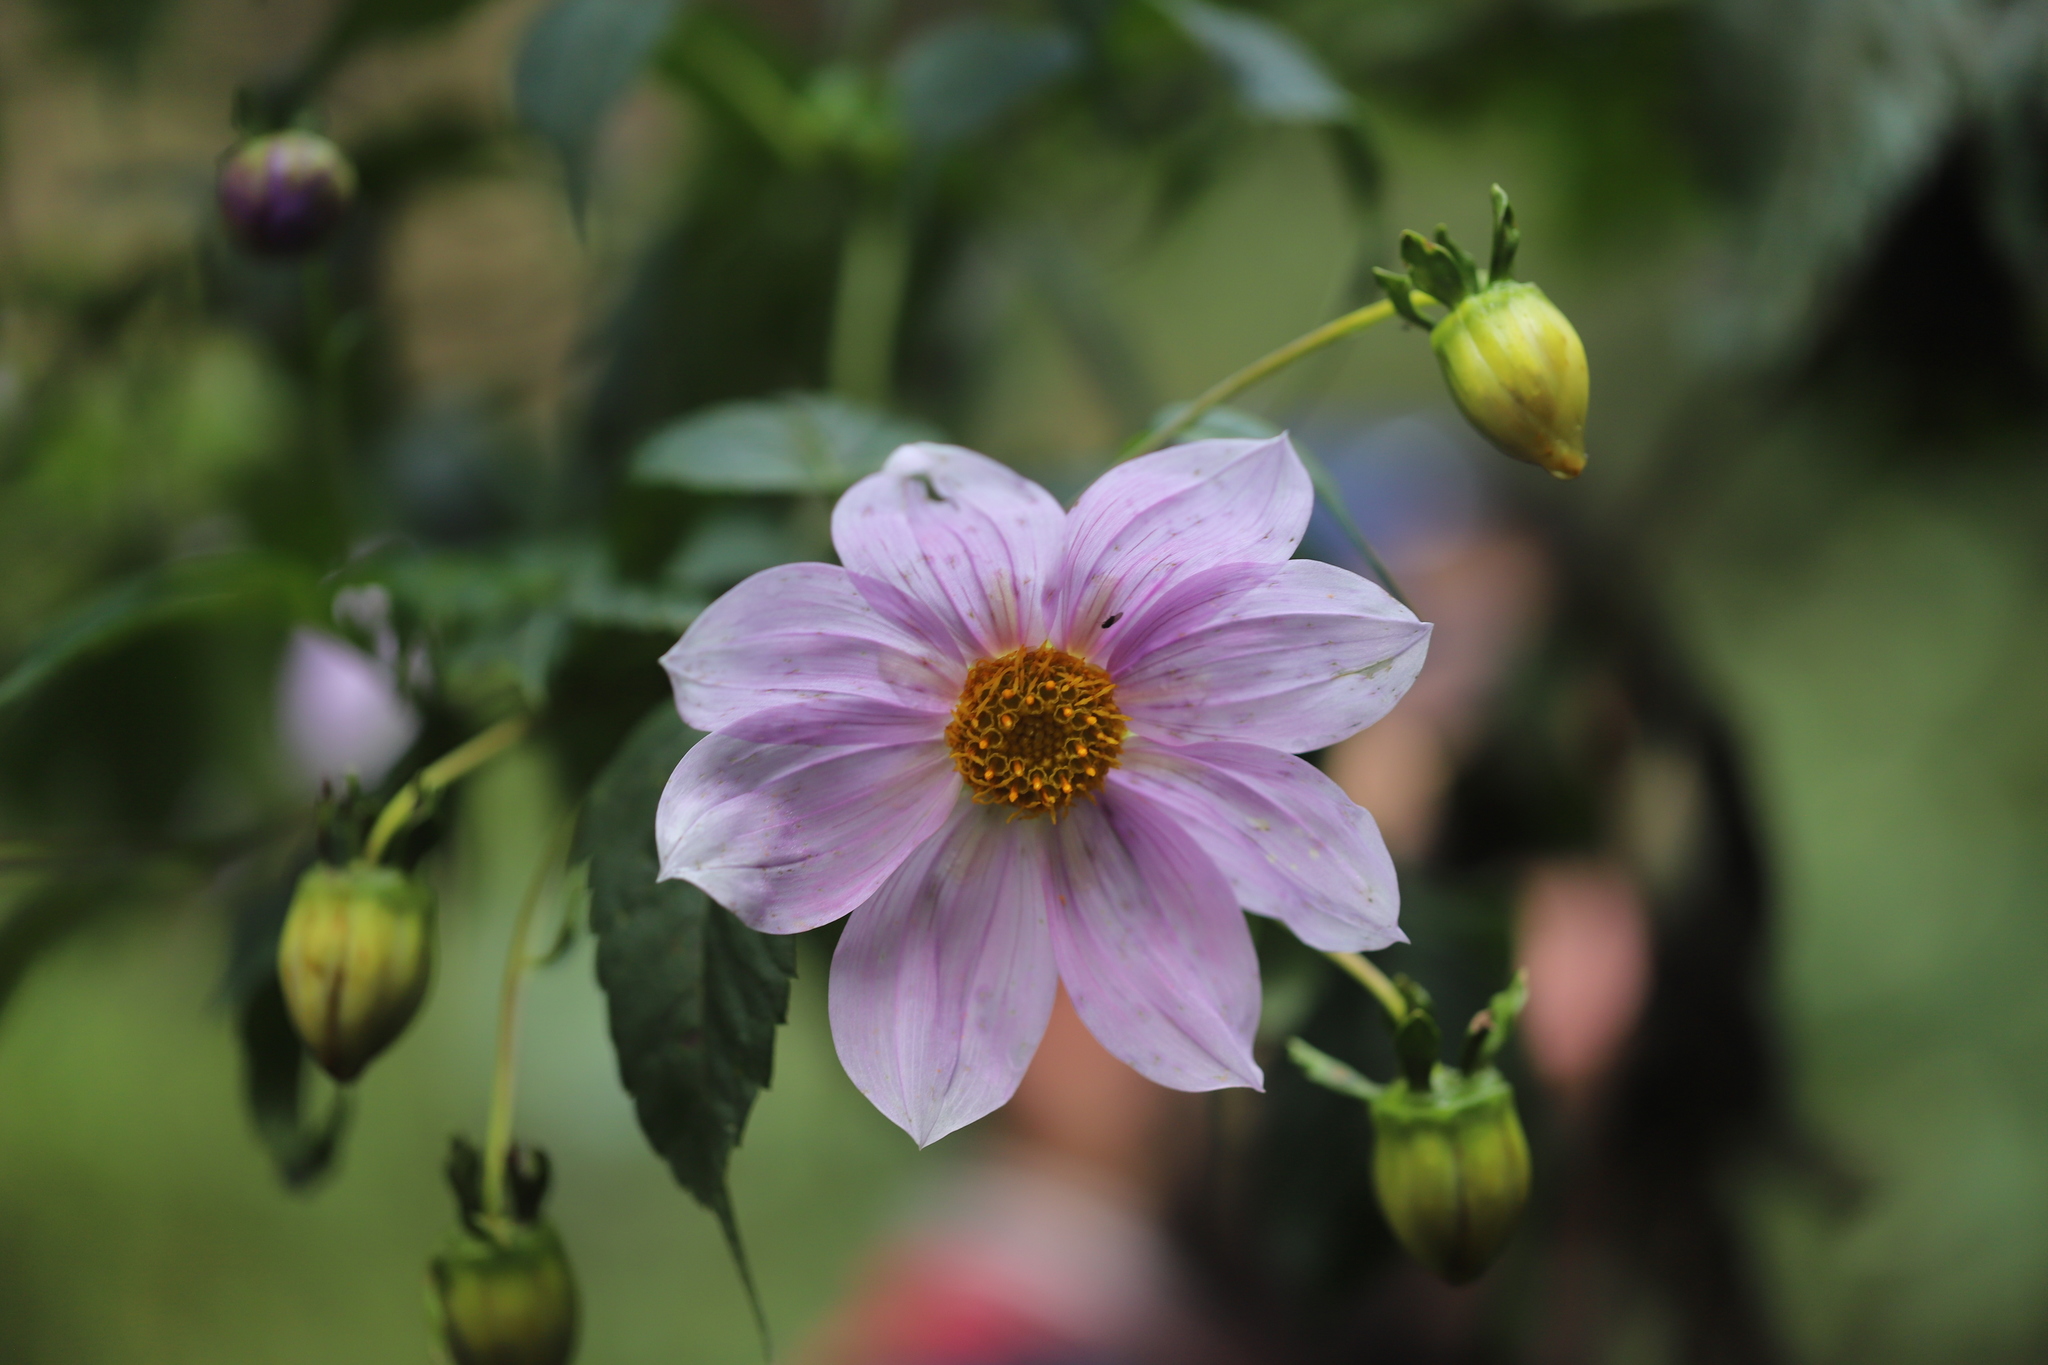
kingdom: Plantae
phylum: Tracheophyta
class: Magnoliopsida
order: Asterales
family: Asteraceae
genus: Dahlia
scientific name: Dahlia imperialis
